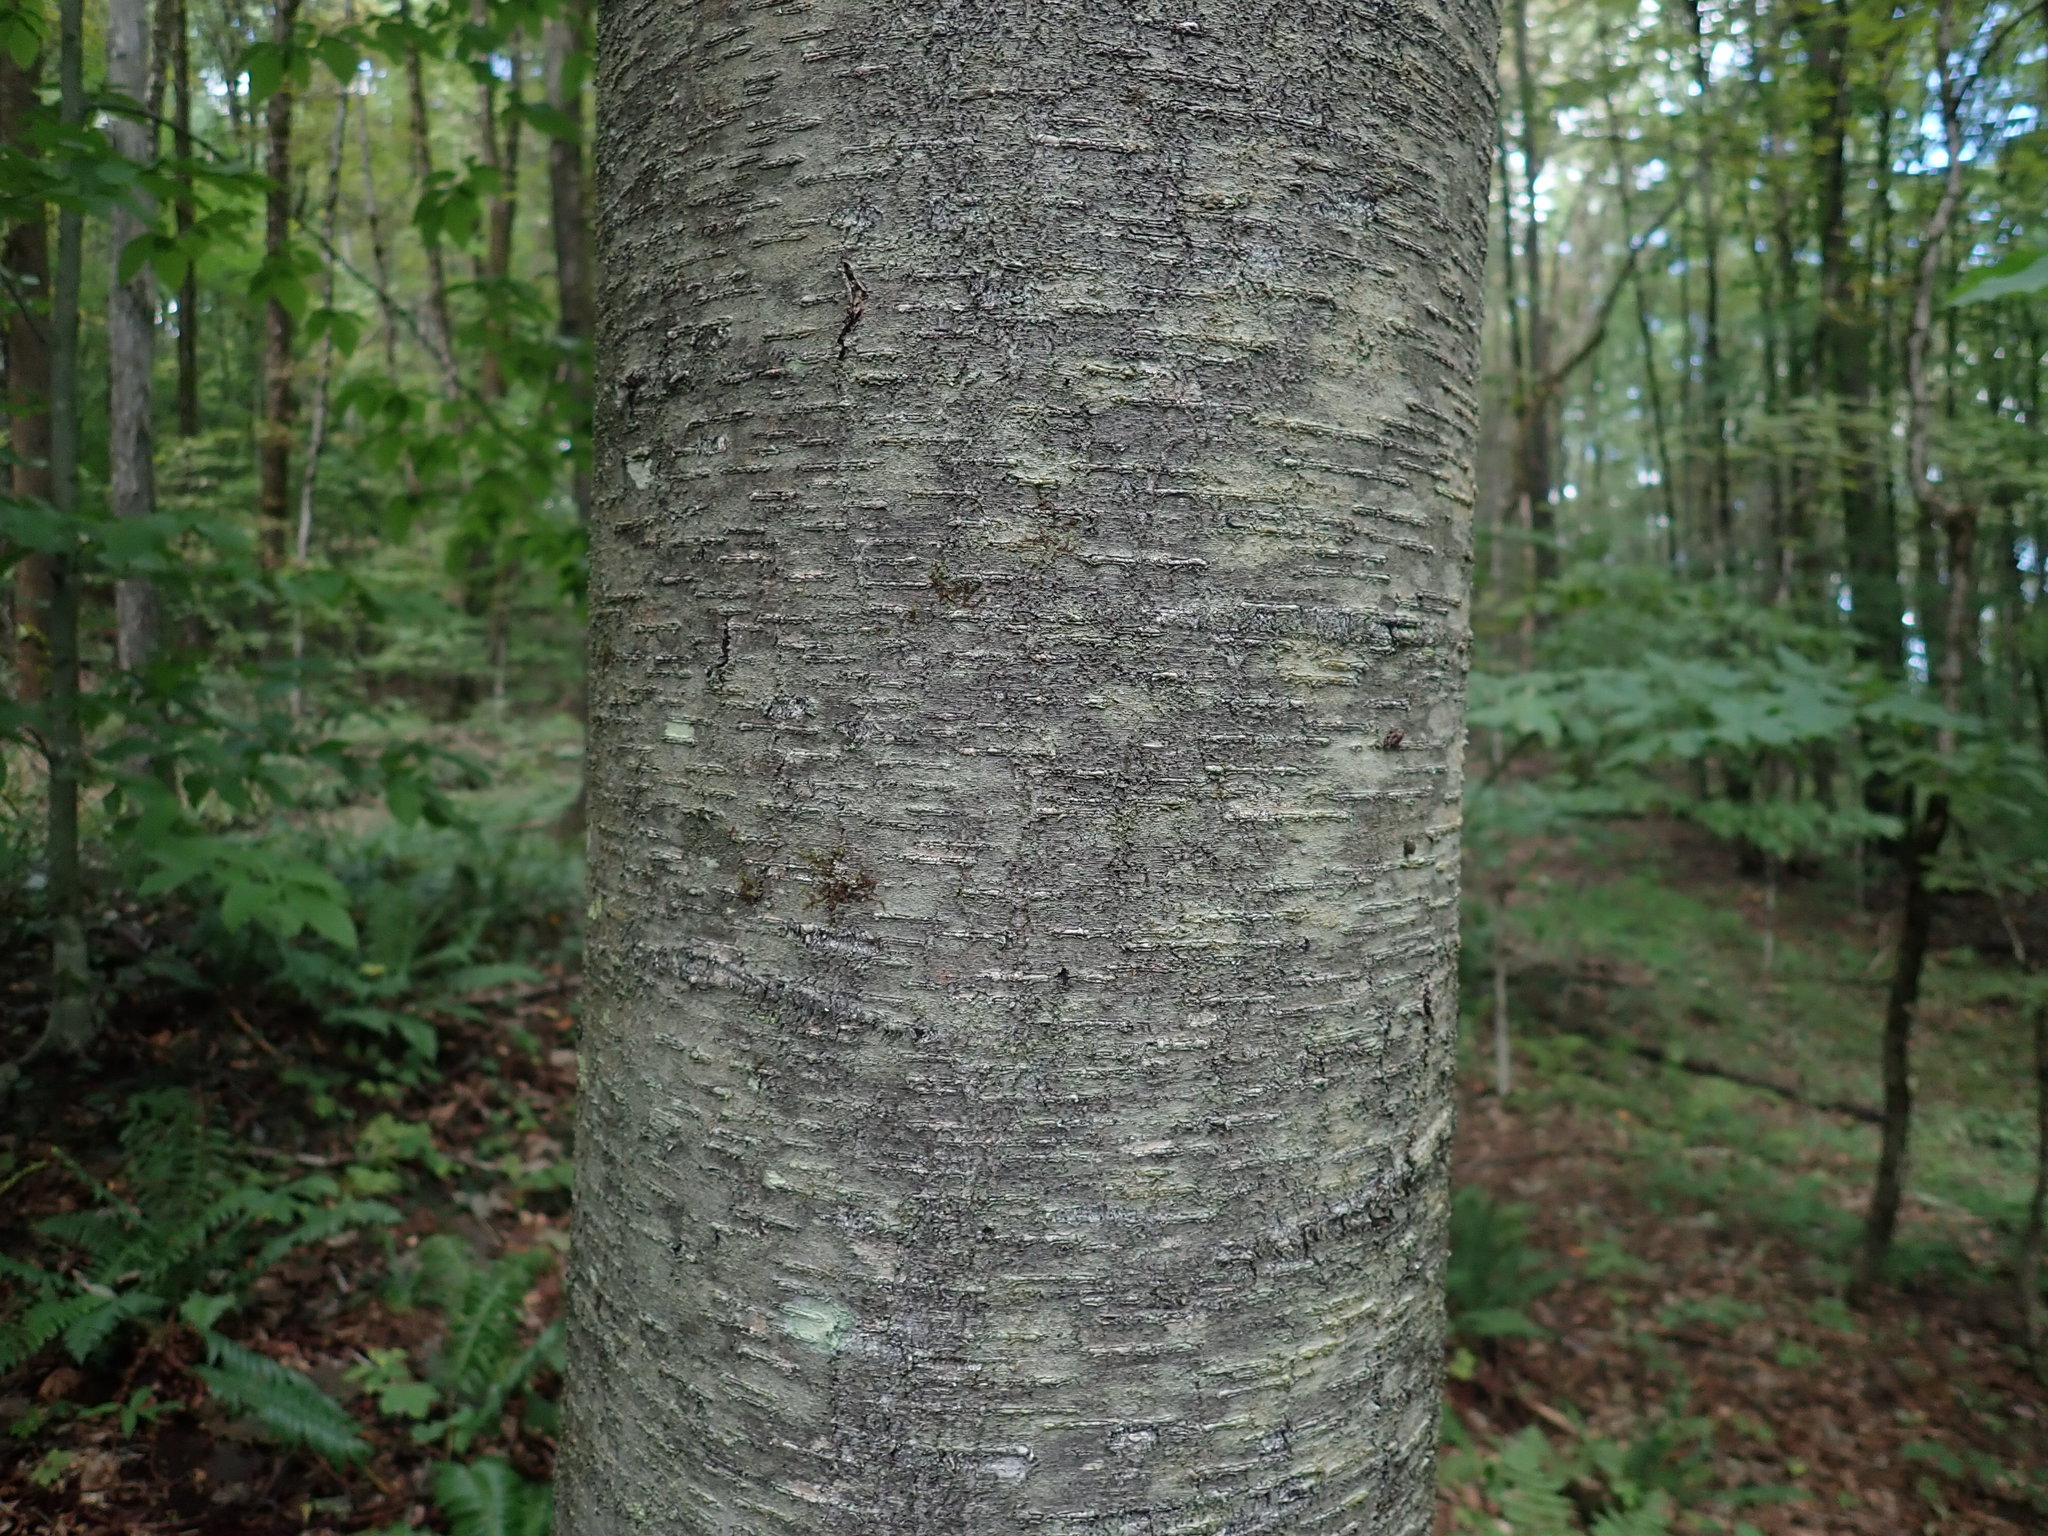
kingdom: Plantae
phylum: Tracheophyta
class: Magnoliopsida
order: Fagales
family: Betulaceae
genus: Betula
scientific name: Betula lenta
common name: Black birch
